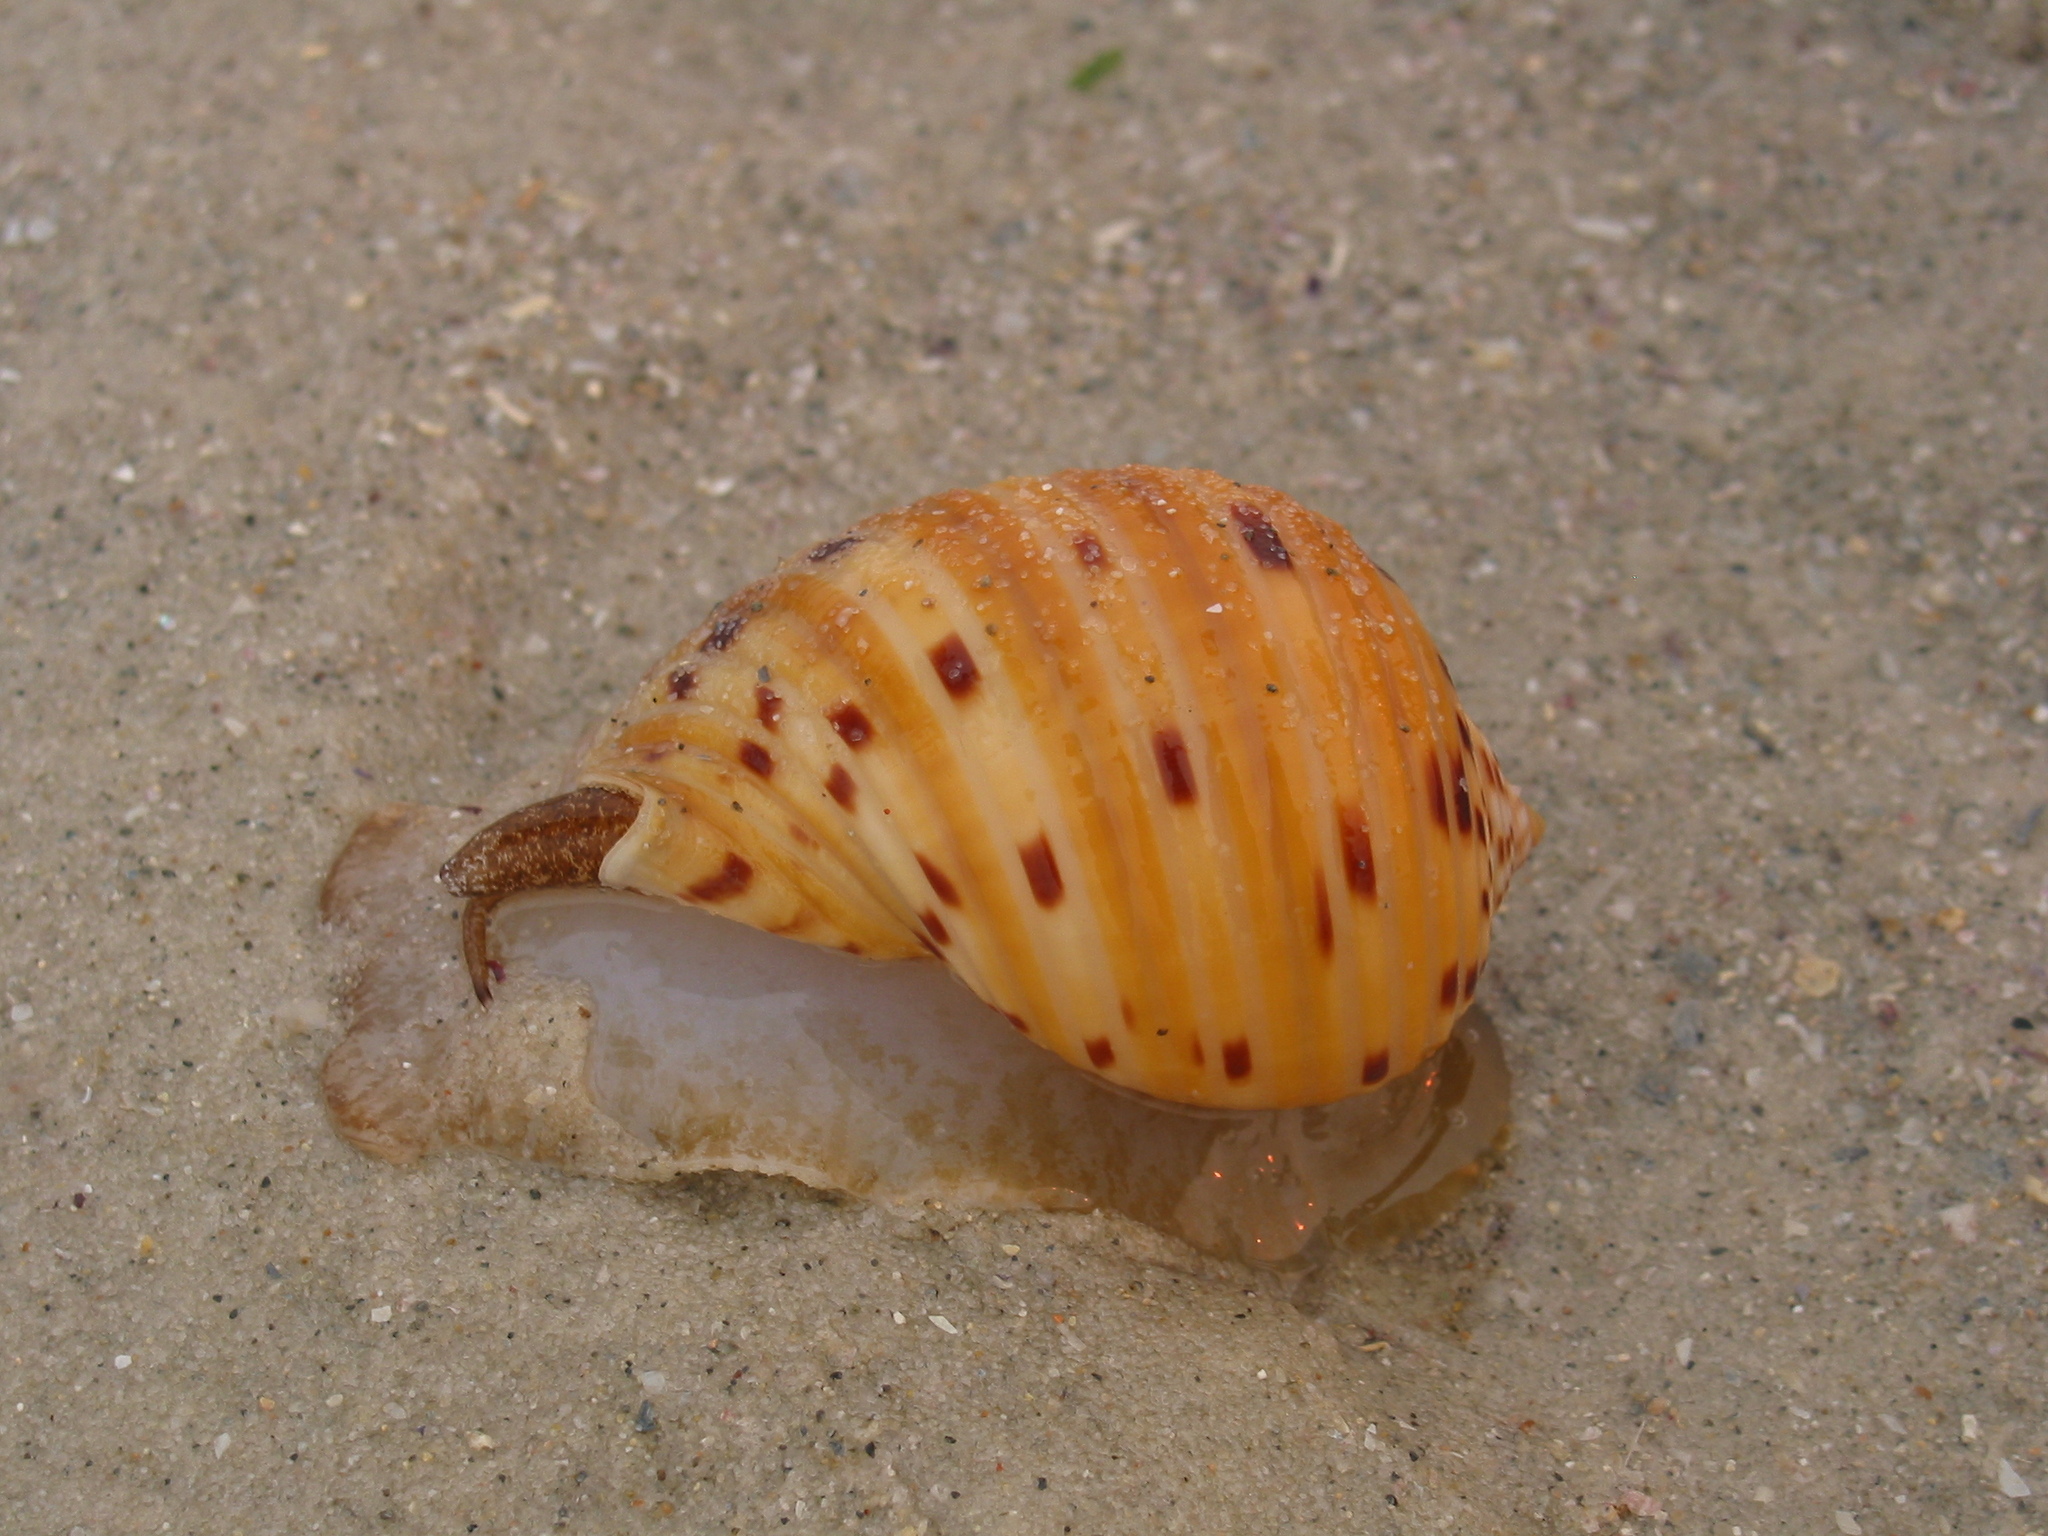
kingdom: Animalia
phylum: Mollusca
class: Gastropoda
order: Littorinimorpha
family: Tonnidae
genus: Tonna
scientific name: Tonna tankervillii
